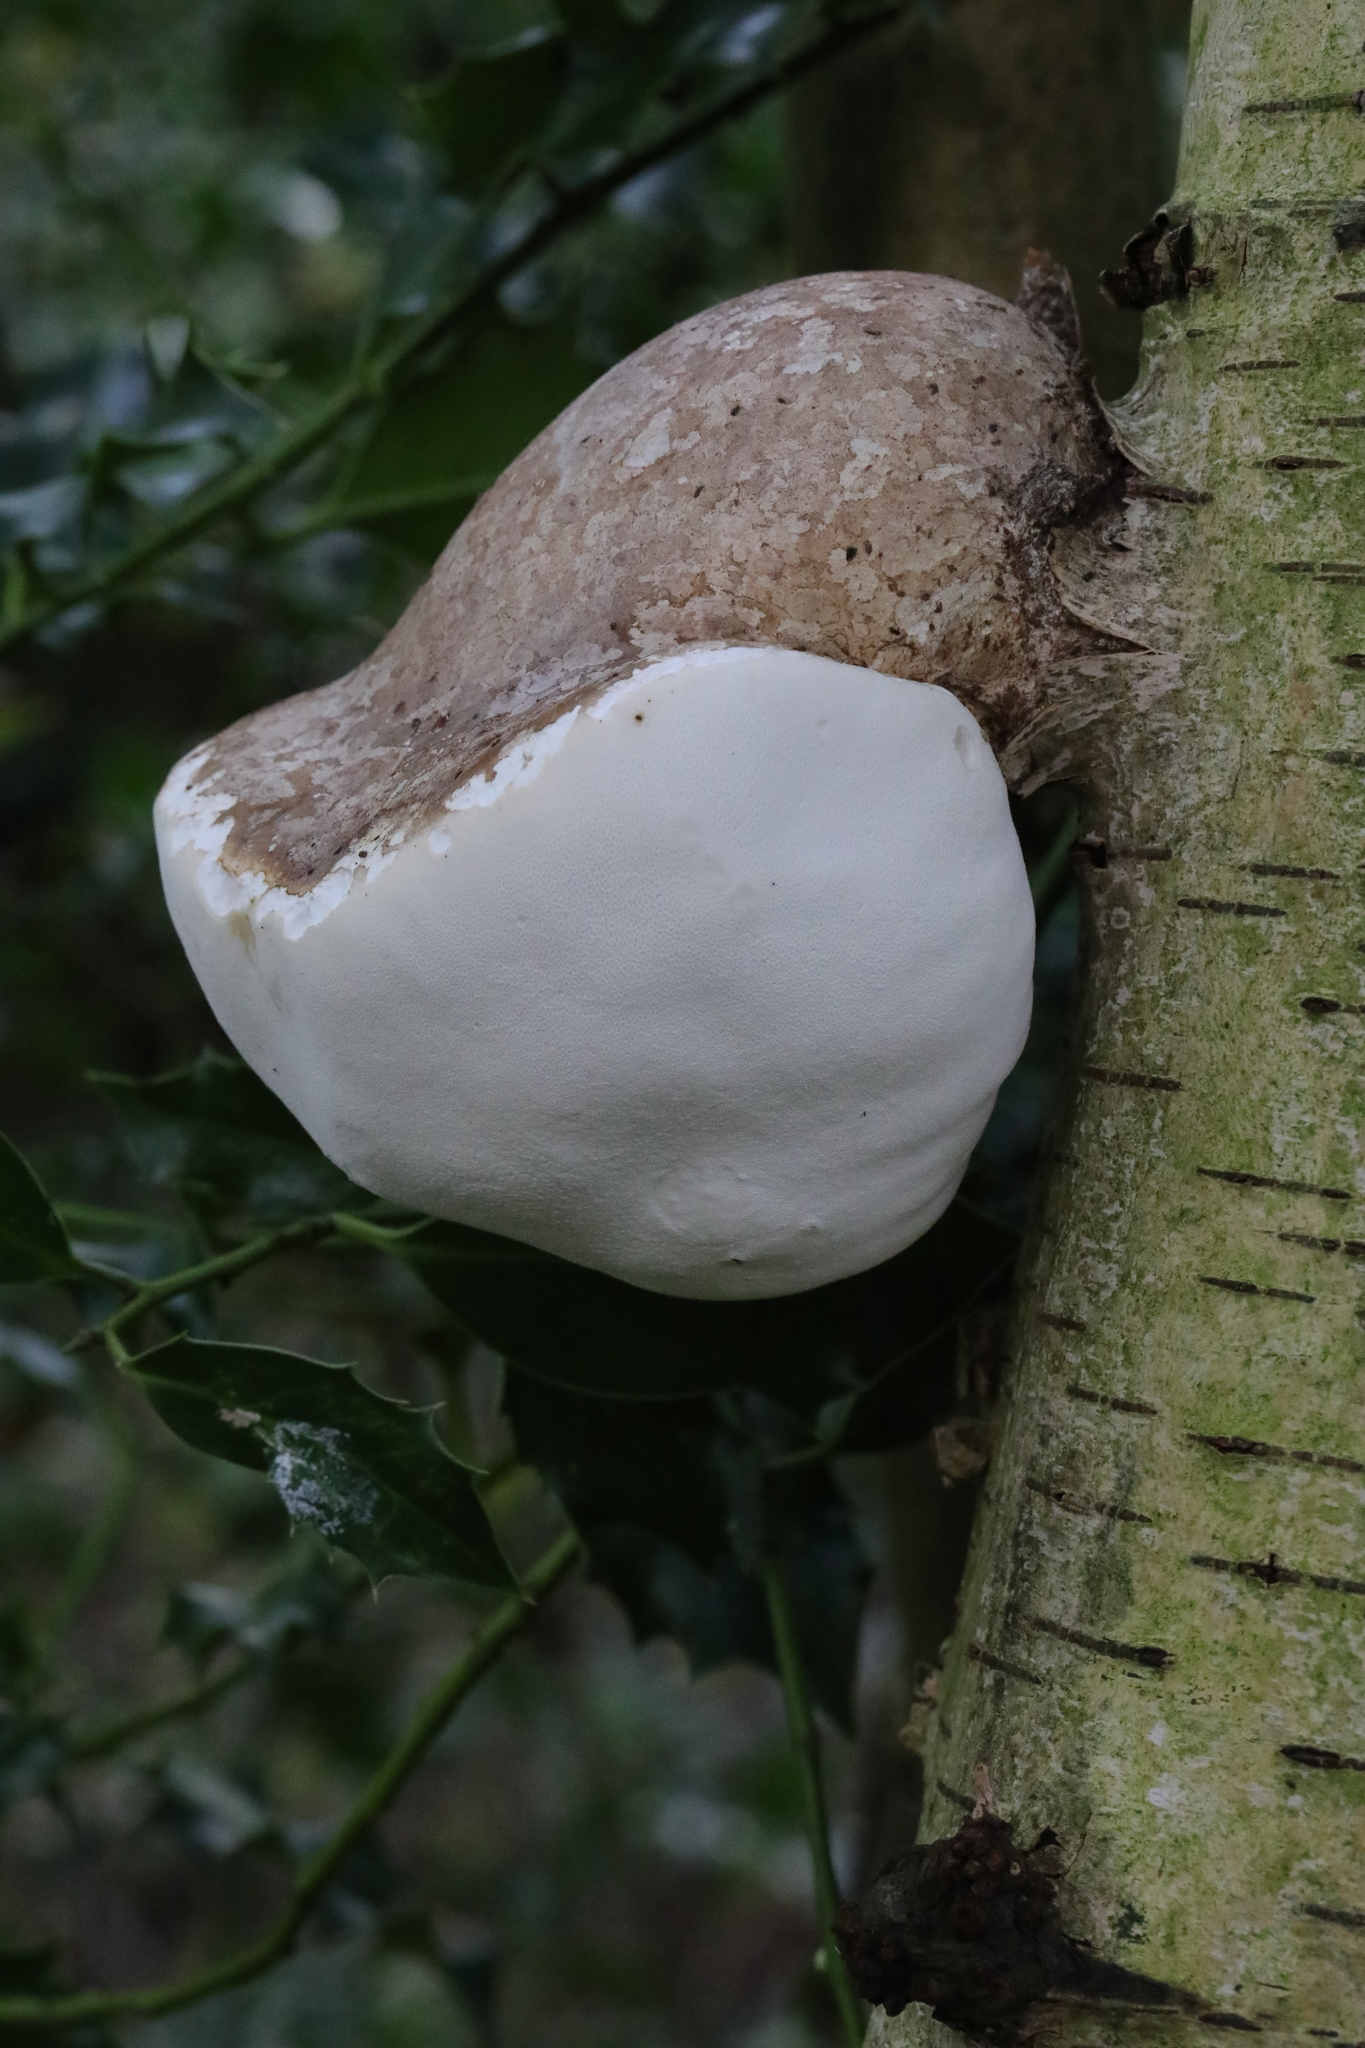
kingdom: Fungi
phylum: Basidiomycota
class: Agaricomycetes
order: Polyporales
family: Fomitopsidaceae
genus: Fomitopsis
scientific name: Fomitopsis betulina
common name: Birch polypore
